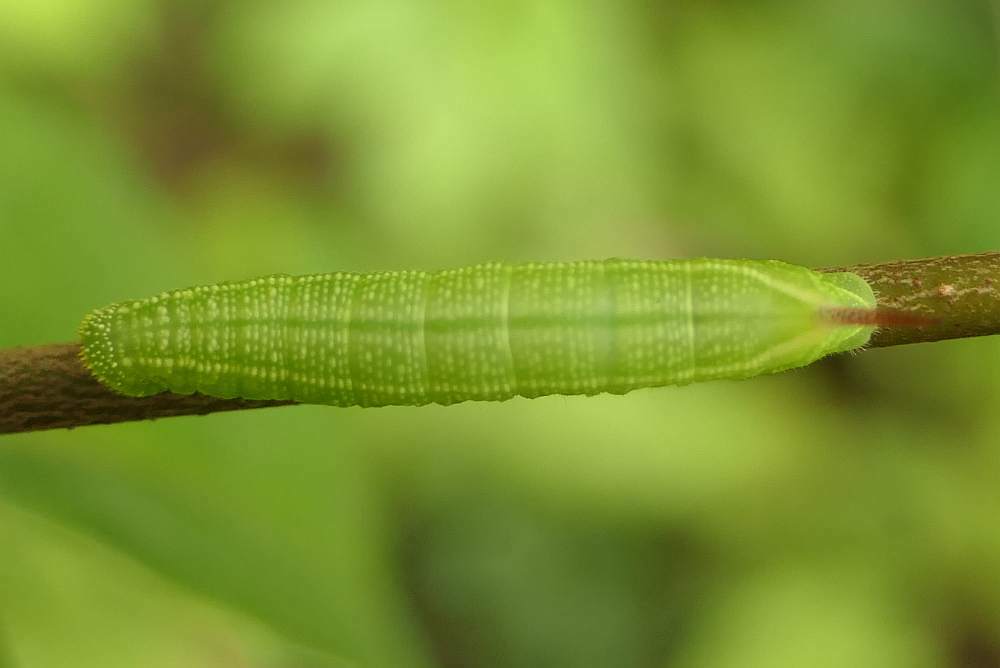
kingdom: Animalia
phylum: Arthropoda
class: Insecta
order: Lepidoptera
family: Sphingidae
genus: Hemaris
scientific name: Hemaris thysbe
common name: Common clear-wing
